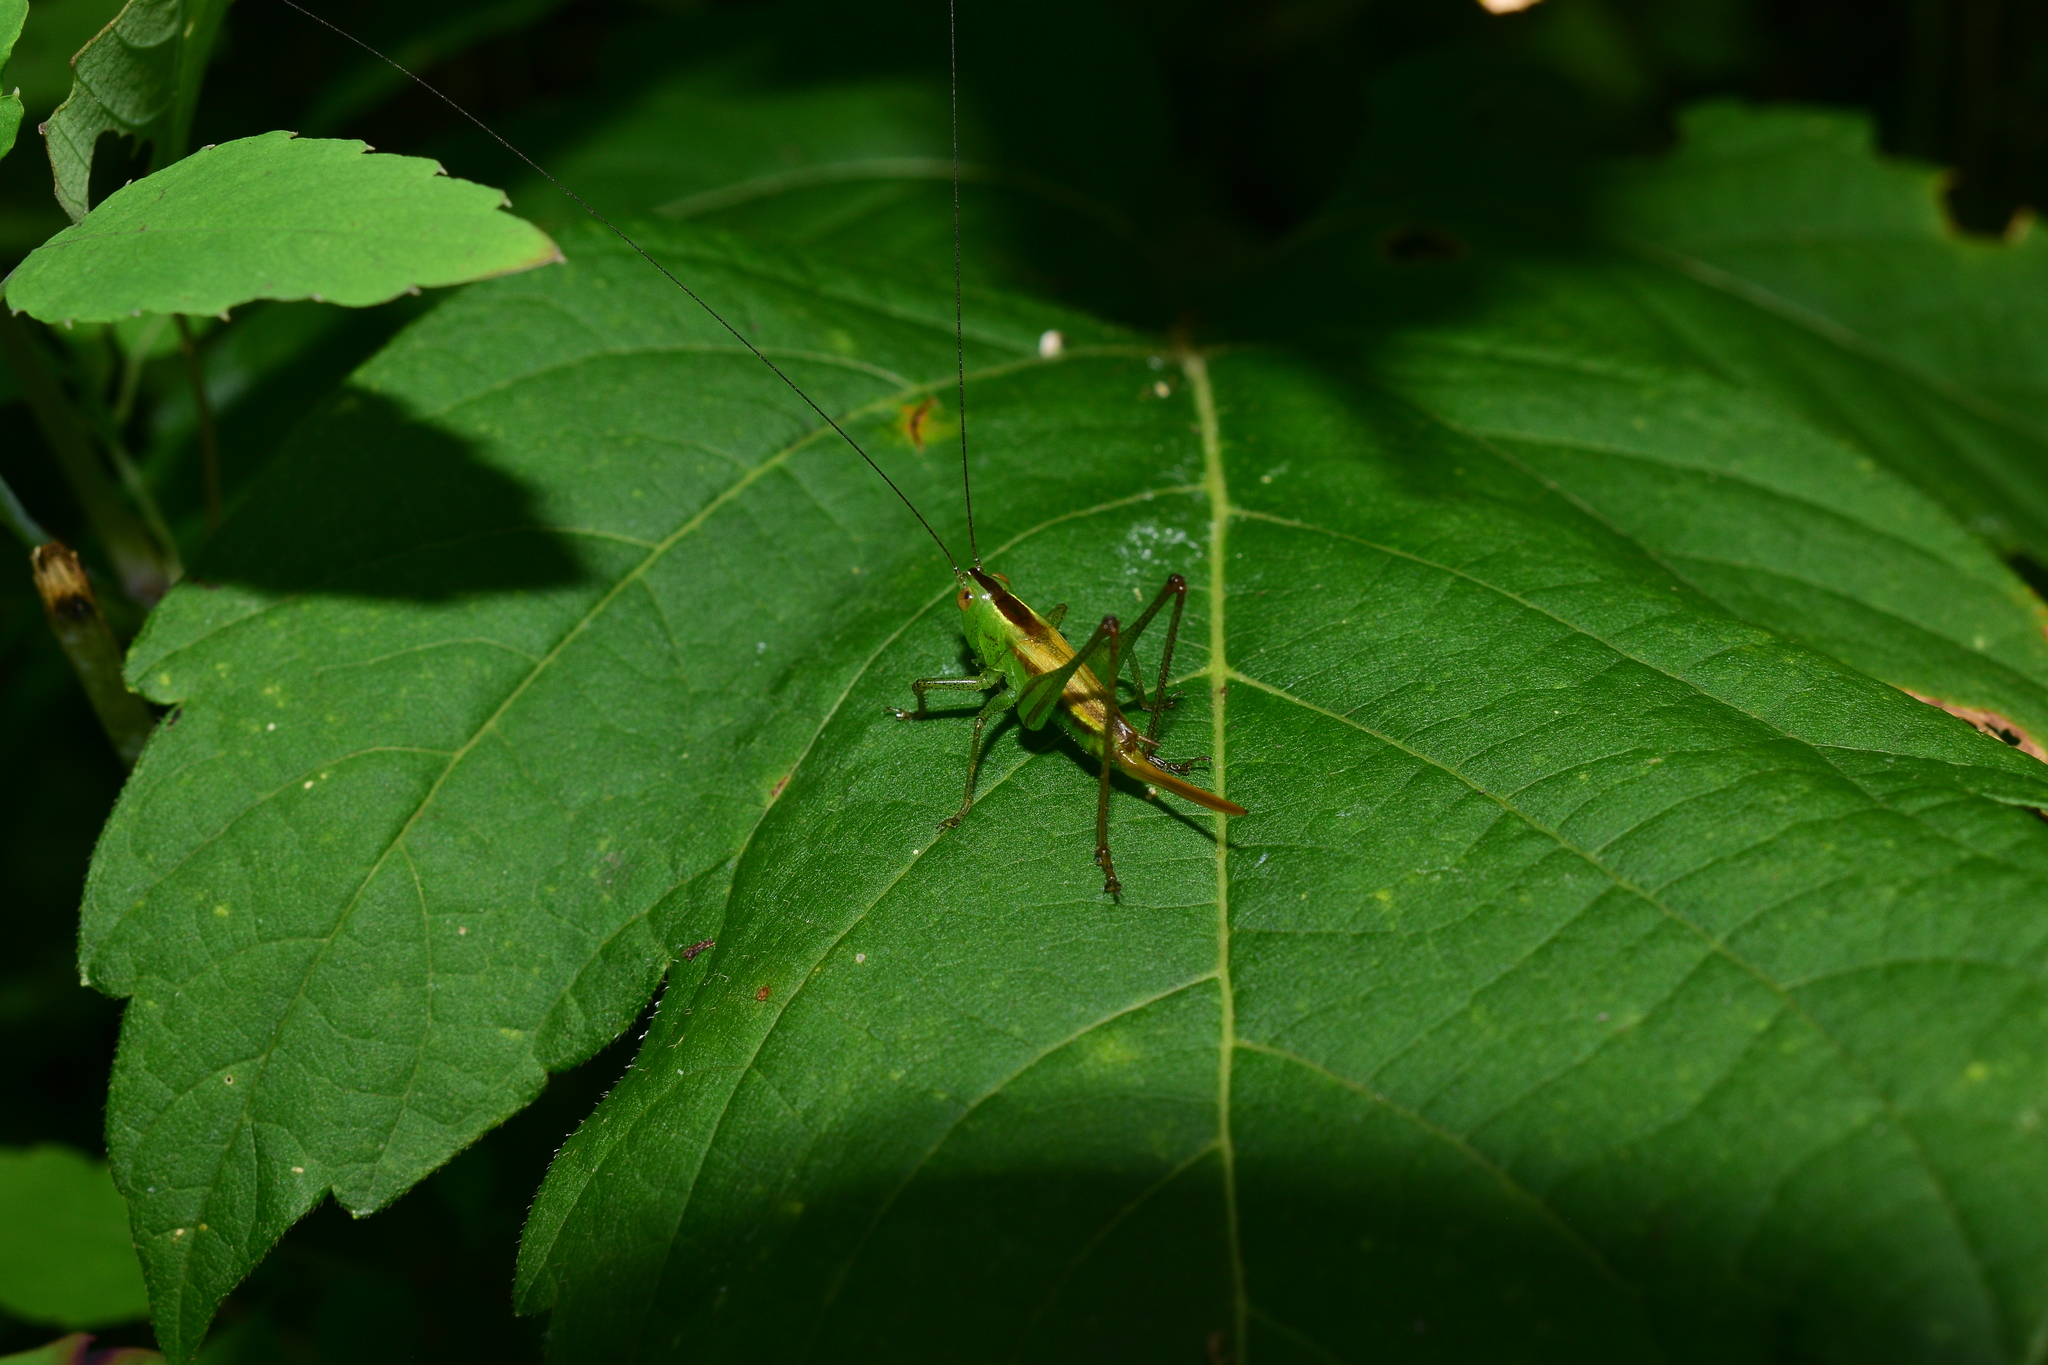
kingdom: Animalia
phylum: Arthropoda
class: Insecta
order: Orthoptera
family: Tettigoniidae
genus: Conocephalus
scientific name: Conocephalus brevipennis
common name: Short-winged meadow katydid
